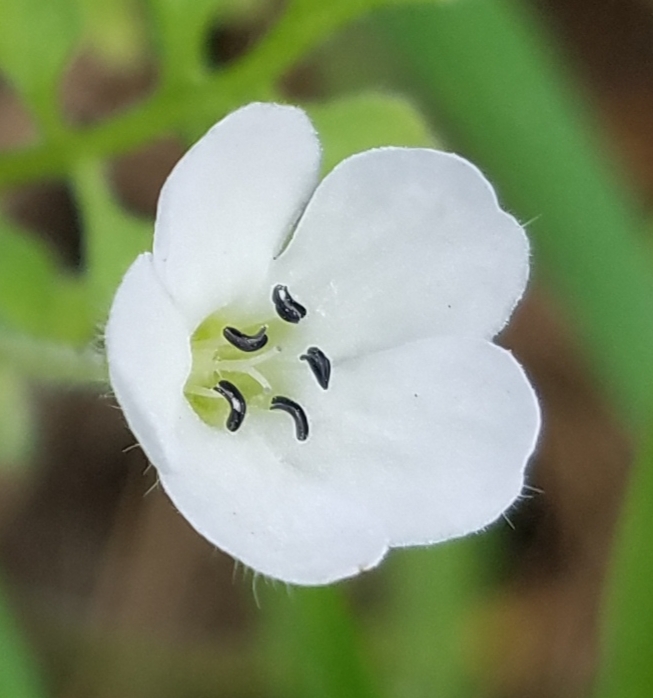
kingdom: Plantae
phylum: Tracheophyta
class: Magnoliopsida
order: Boraginales
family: Hydrophyllaceae
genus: Nemophila
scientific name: Nemophila heterophylla
